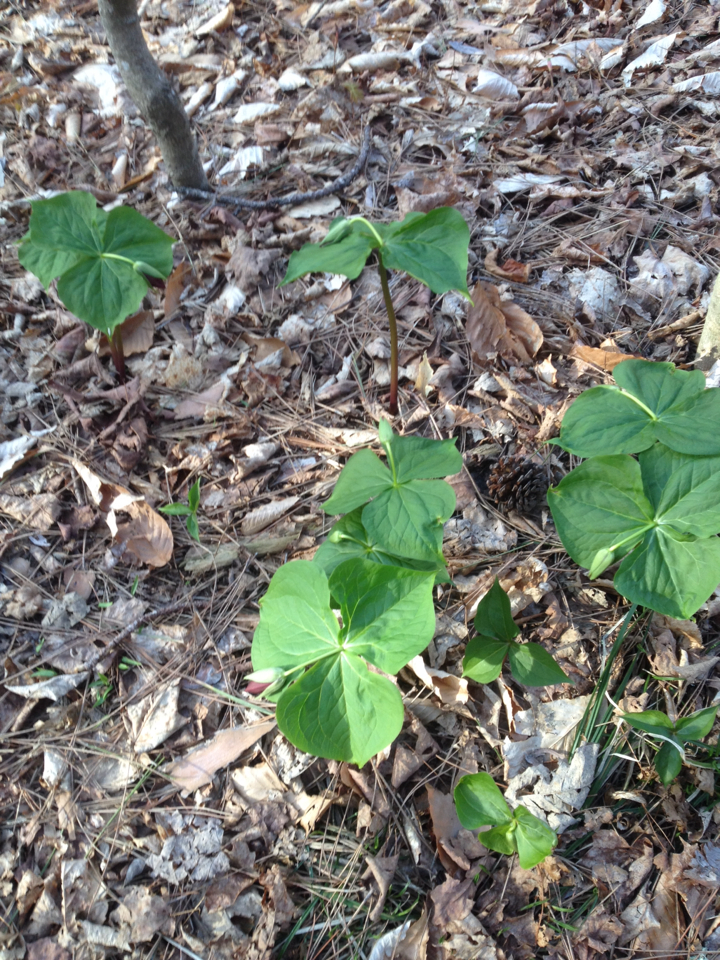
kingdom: Plantae
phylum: Tracheophyta
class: Liliopsida
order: Liliales
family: Melanthiaceae
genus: Trillium
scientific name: Trillium erectum
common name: Purple trillium
